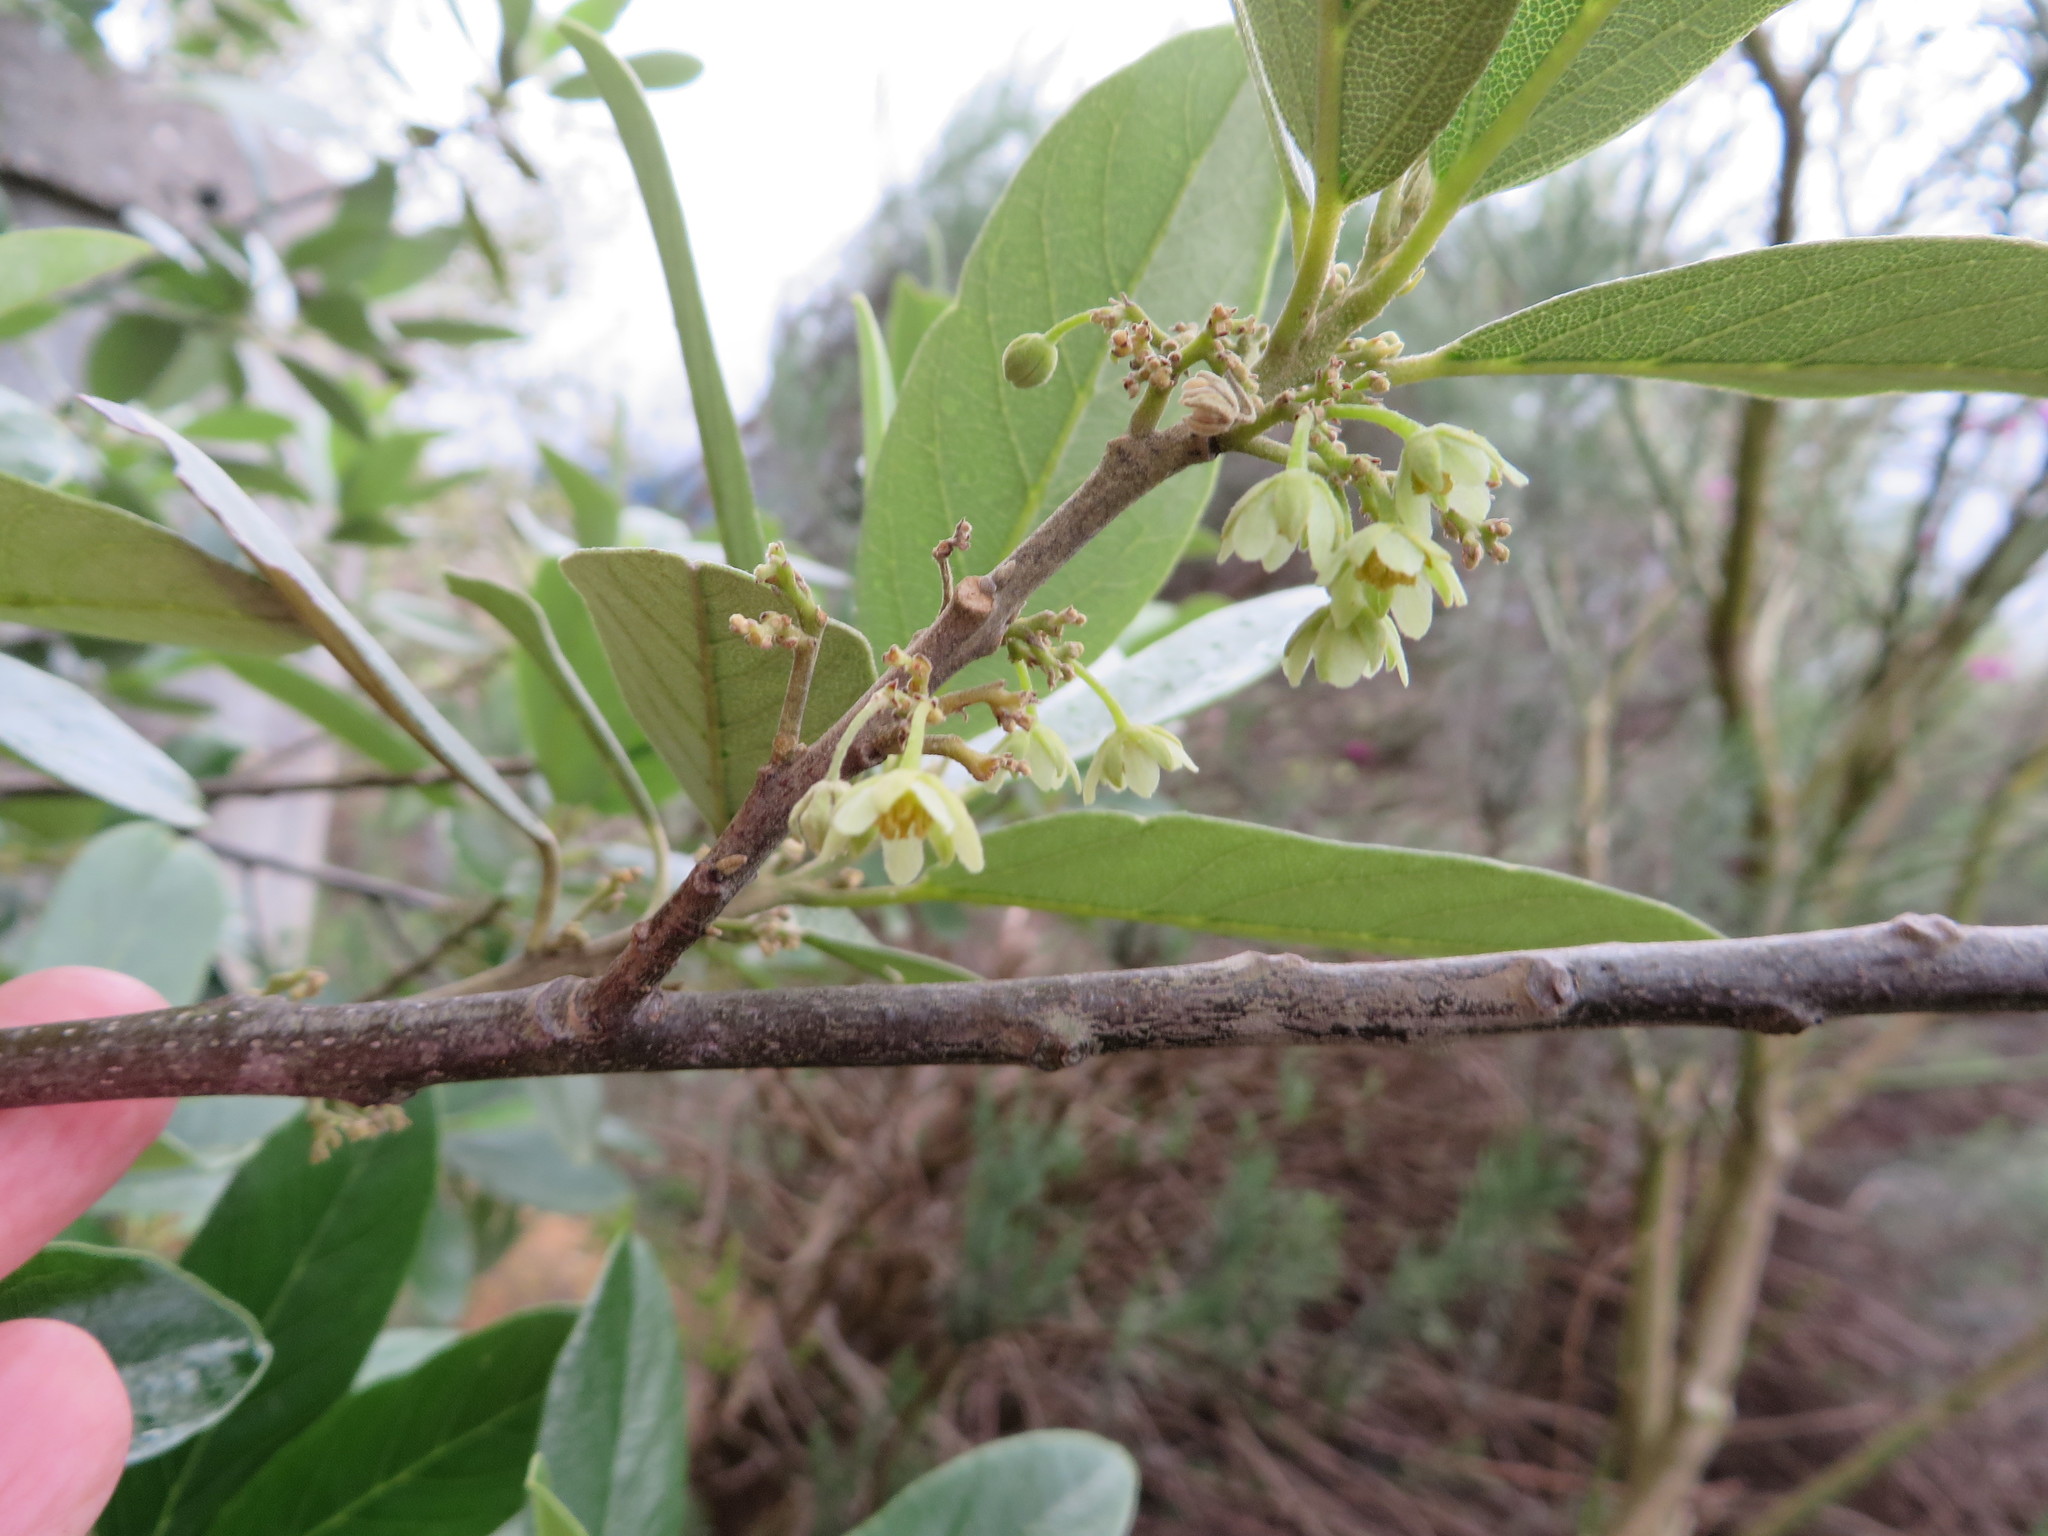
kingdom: Plantae
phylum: Tracheophyta
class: Magnoliopsida
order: Malpighiales
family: Achariaceae
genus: Kiggelaria
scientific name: Kiggelaria africana
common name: Wild peach
